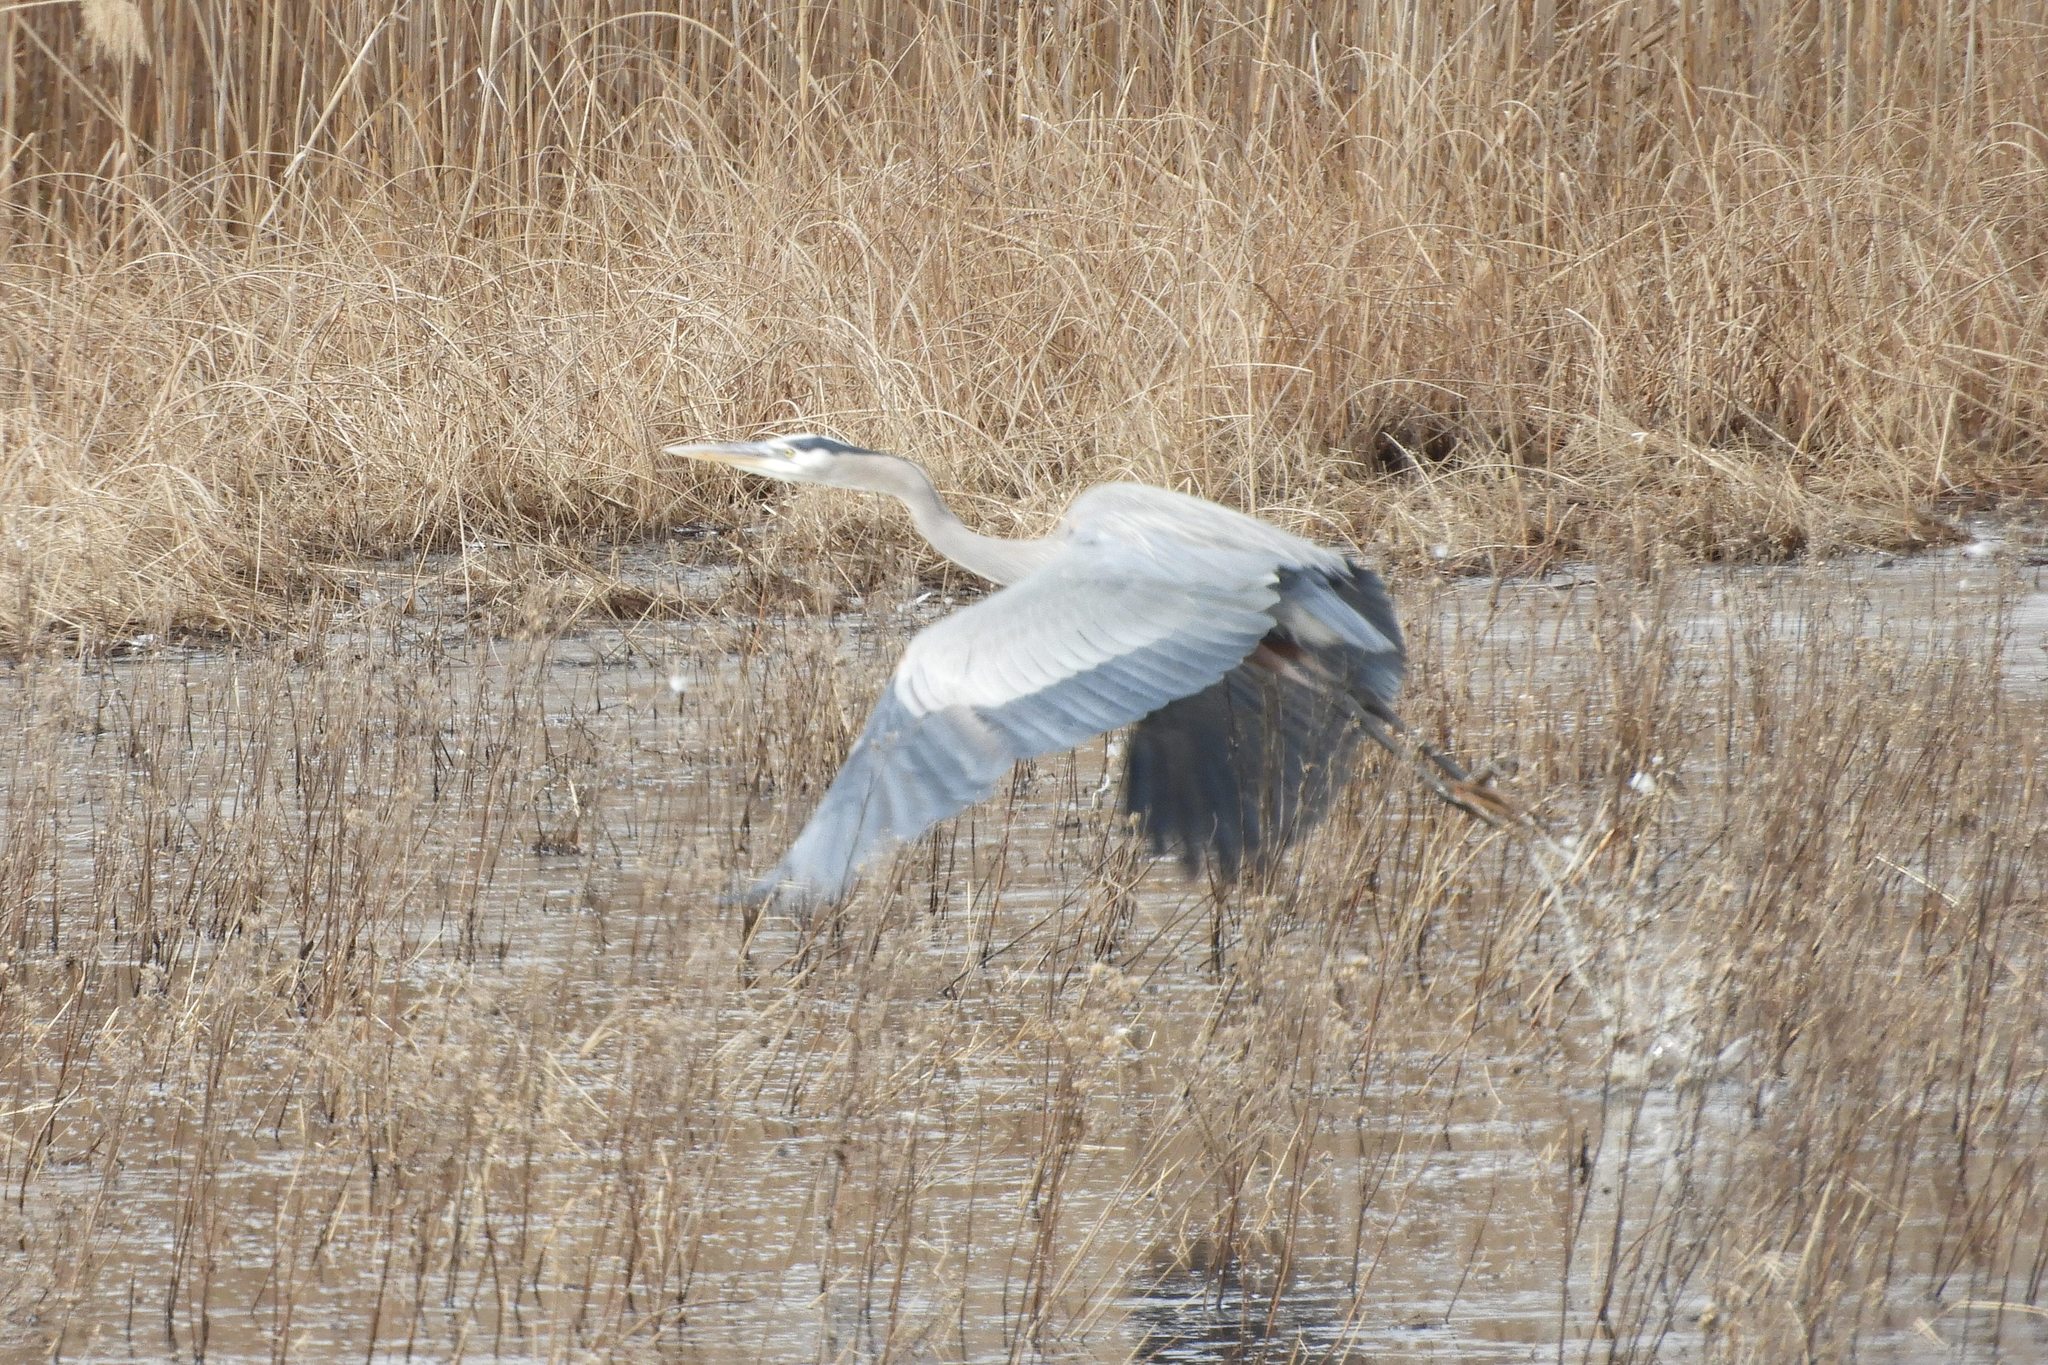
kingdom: Animalia
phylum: Chordata
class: Aves
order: Pelecaniformes
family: Ardeidae
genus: Ardea
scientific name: Ardea herodias
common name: Great blue heron
